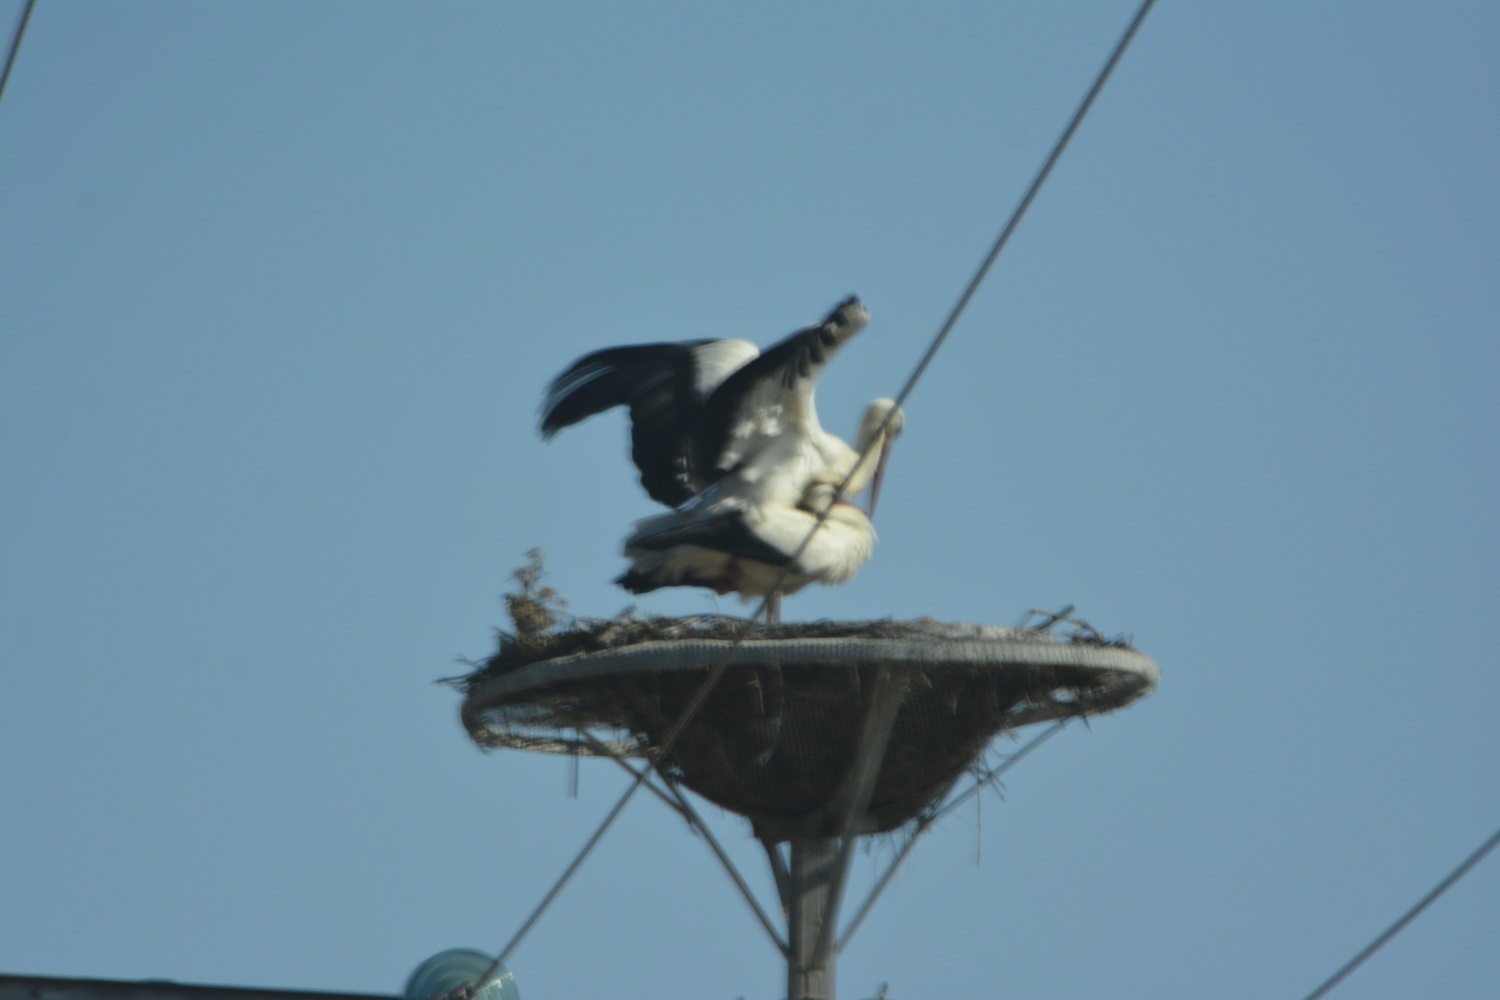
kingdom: Animalia
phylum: Chordata
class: Aves
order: Ciconiiformes
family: Ciconiidae
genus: Ciconia
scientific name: Ciconia ciconia
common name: White stork
